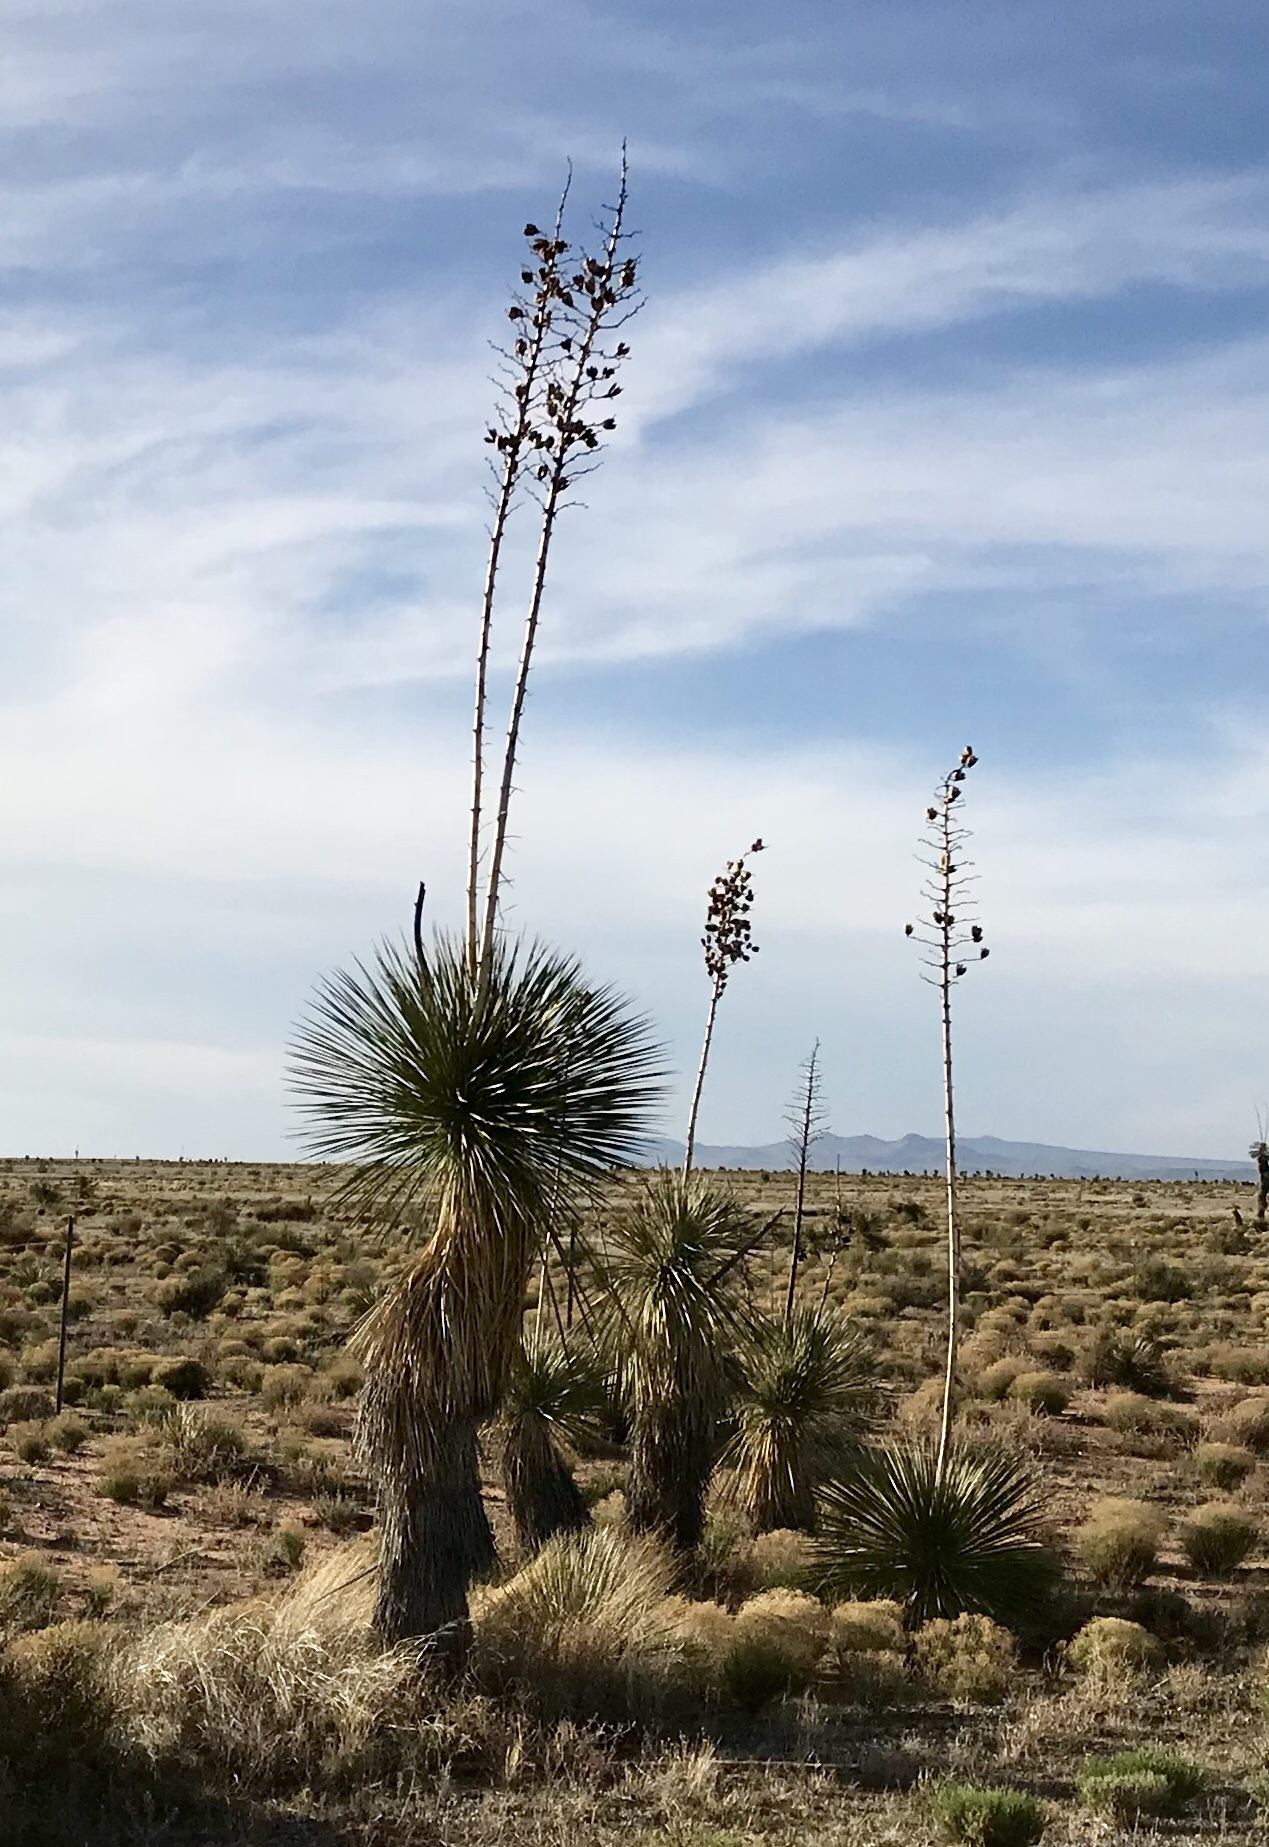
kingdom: Plantae
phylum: Tracheophyta
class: Liliopsida
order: Asparagales
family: Asparagaceae
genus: Yucca
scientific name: Yucca elata
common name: Palmella
